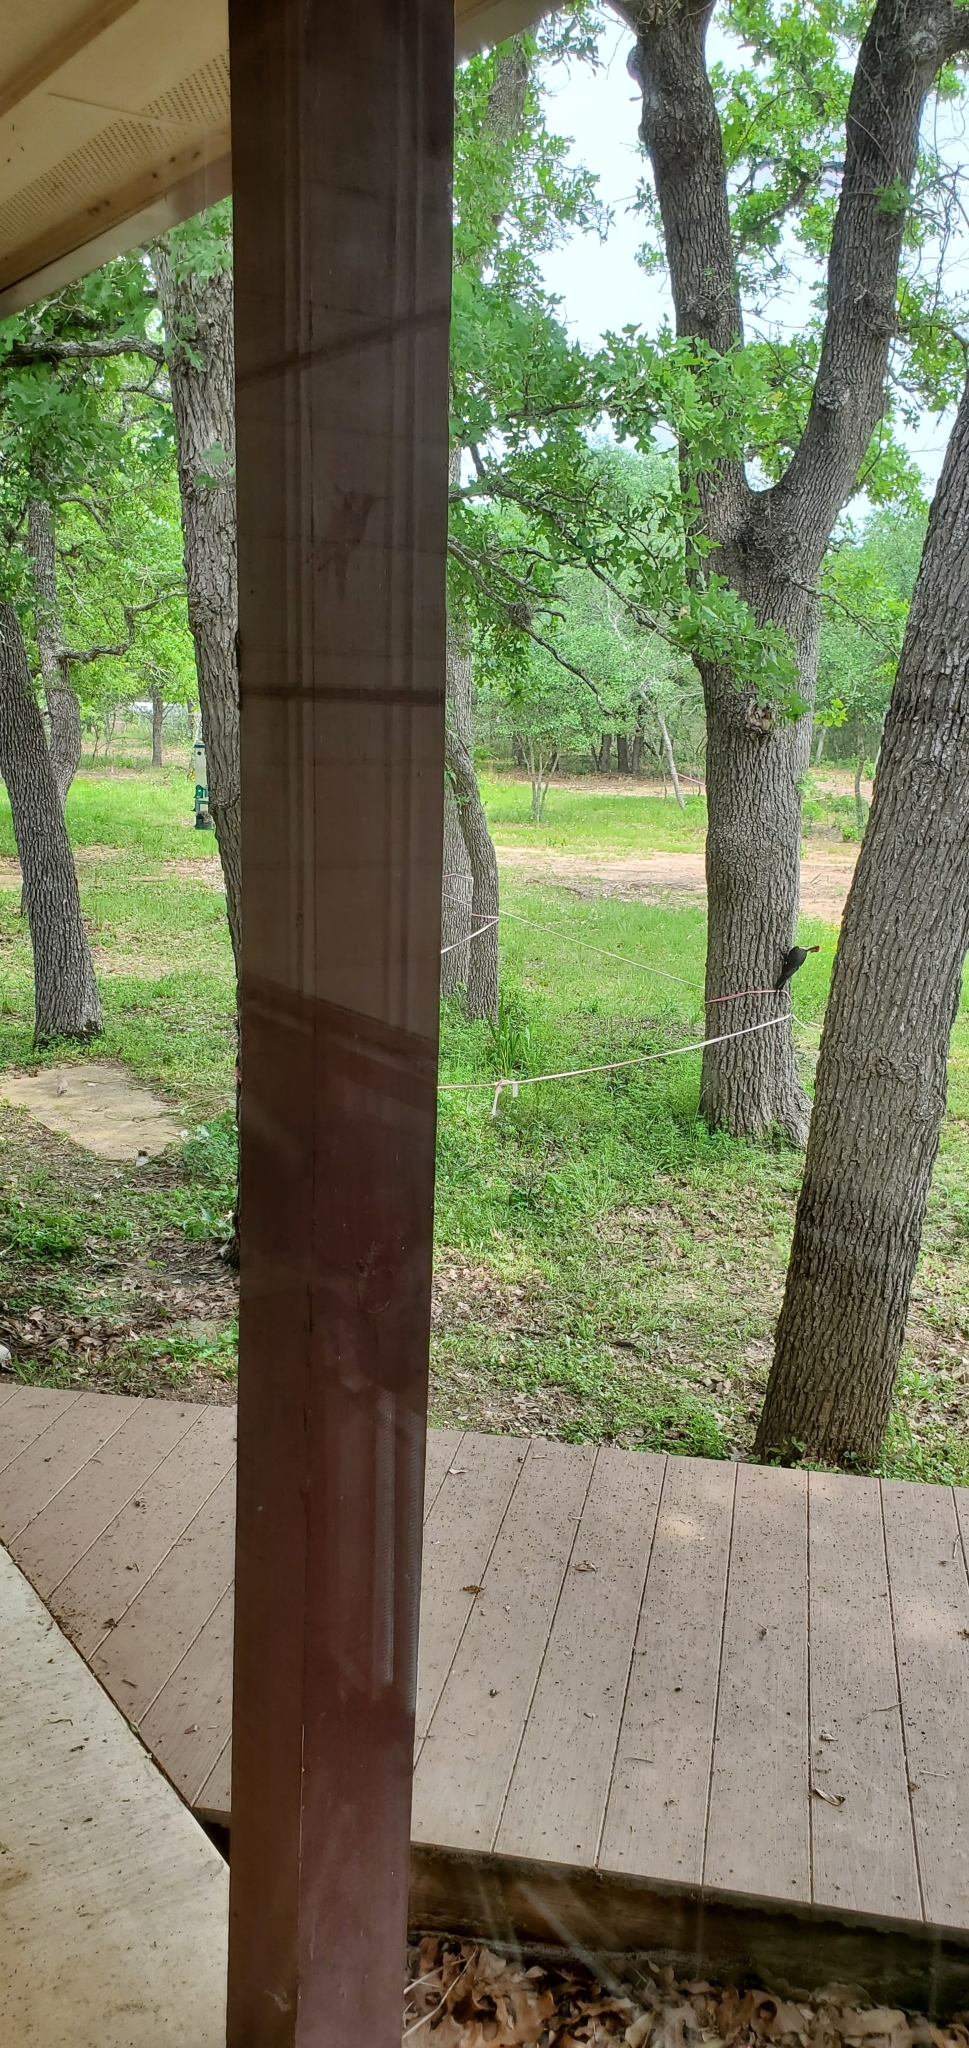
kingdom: Animalia
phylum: Chordata
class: Aves
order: Piciformes
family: Picidae
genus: Dryocopus
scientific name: Dryocopus pileatus
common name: Pileated woodpecker
